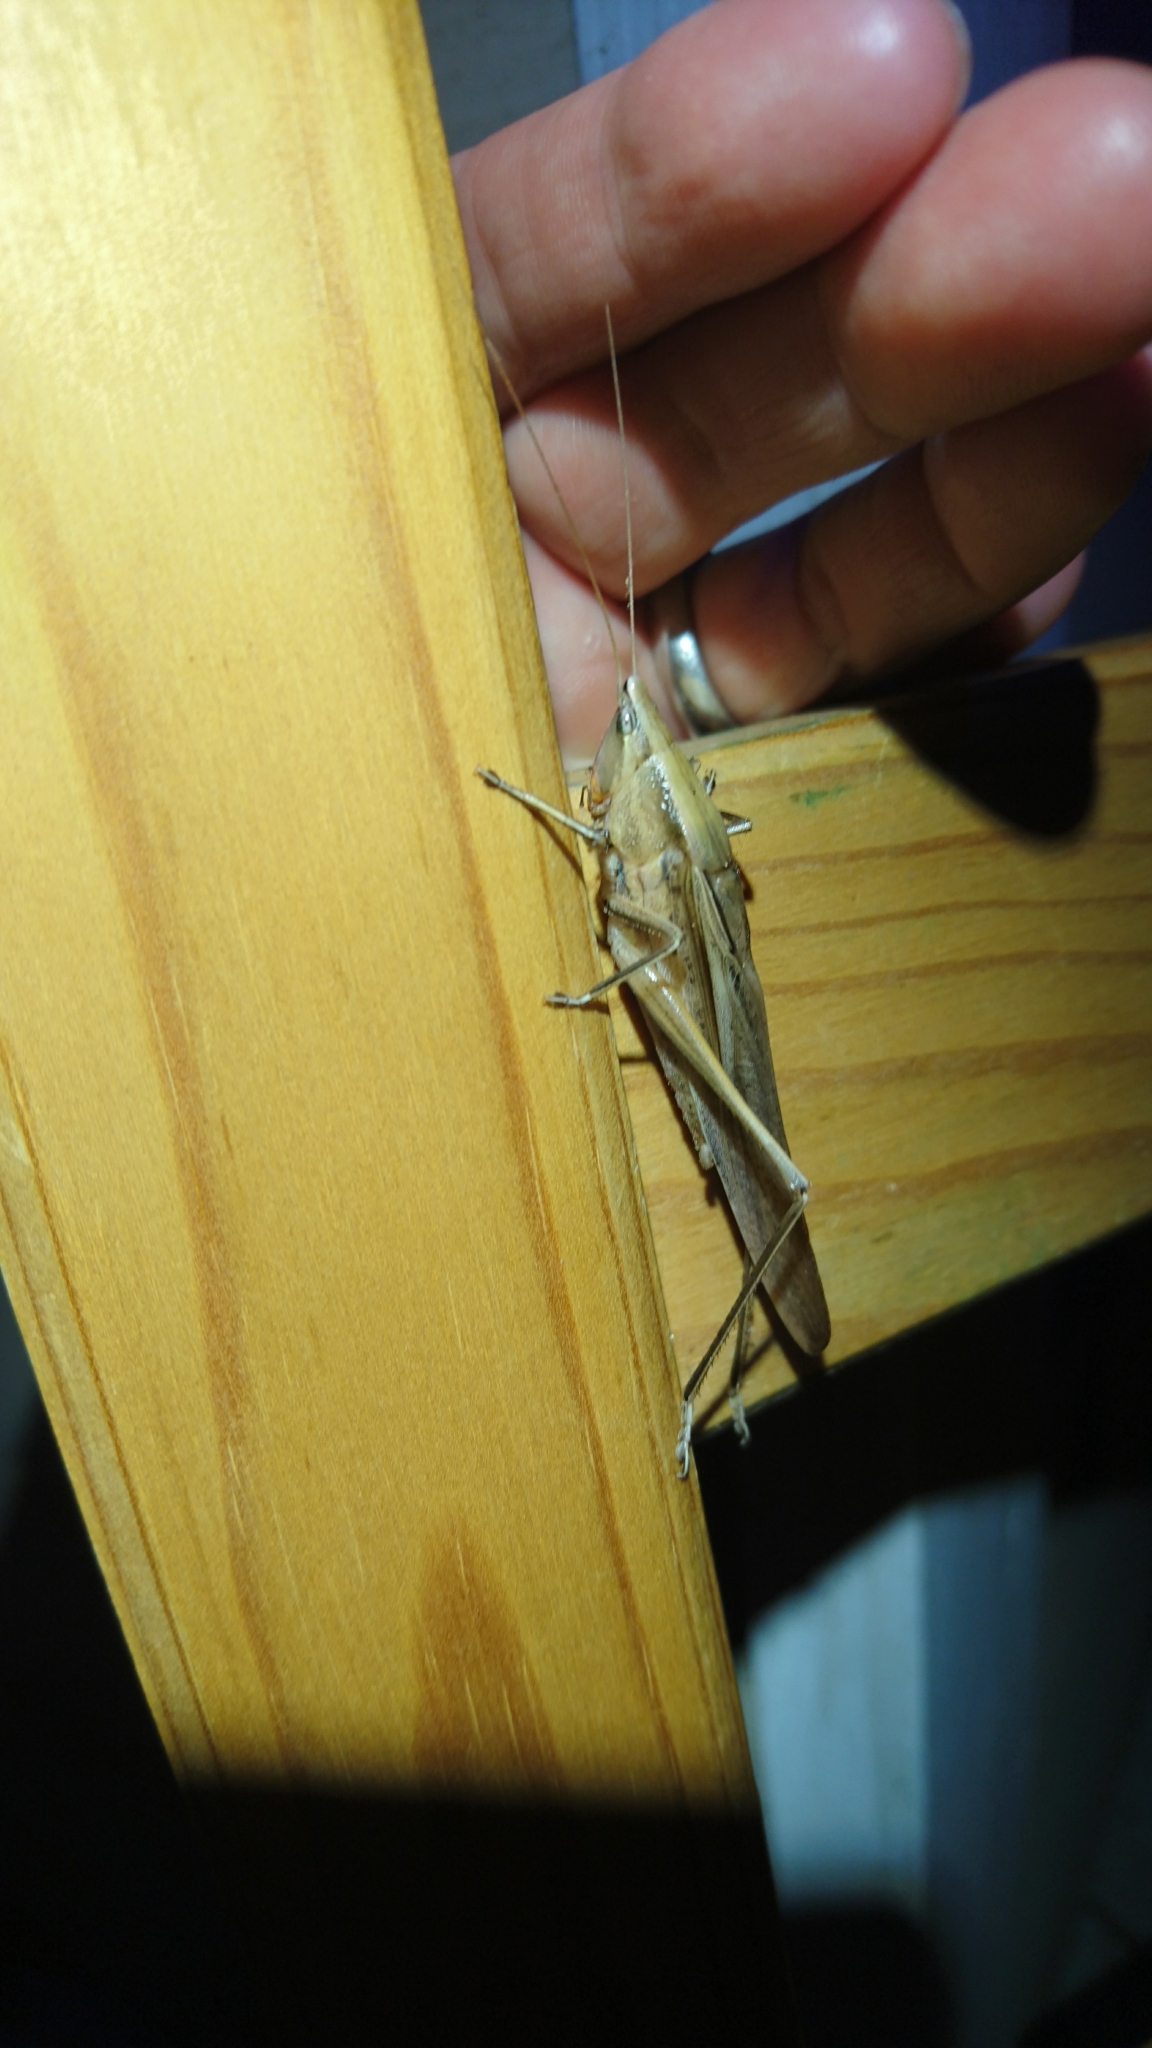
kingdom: Animalia
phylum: Arthropoda
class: Insecta
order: Orthoptera
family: Tettigoniidae
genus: Neoconocephalus
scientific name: Neoconocephalus triops
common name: Broad-tipped conehead
